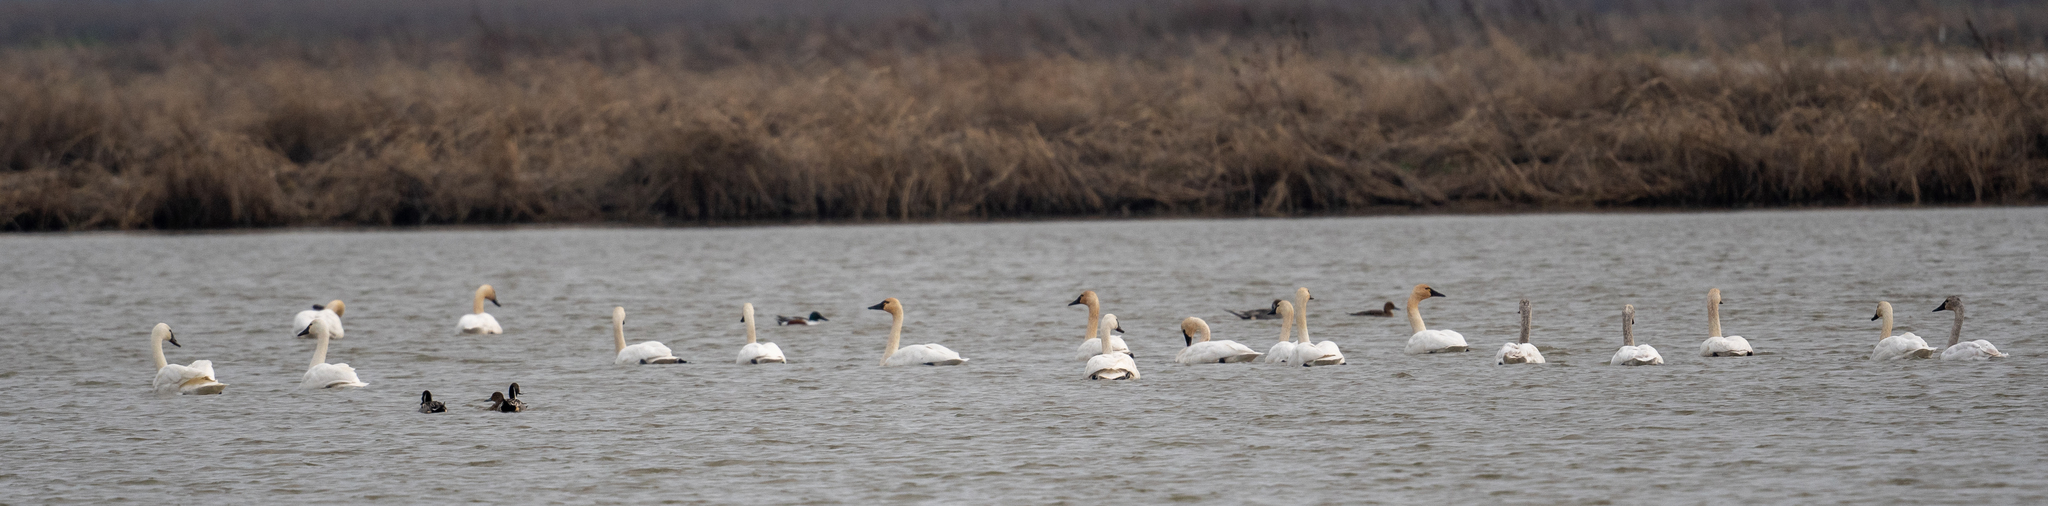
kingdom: Animalia
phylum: Chordata
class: Aves
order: Anseriformes
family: Anatidae
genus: Cygnus
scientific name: Cygnus columbianus
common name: Tundra swan
